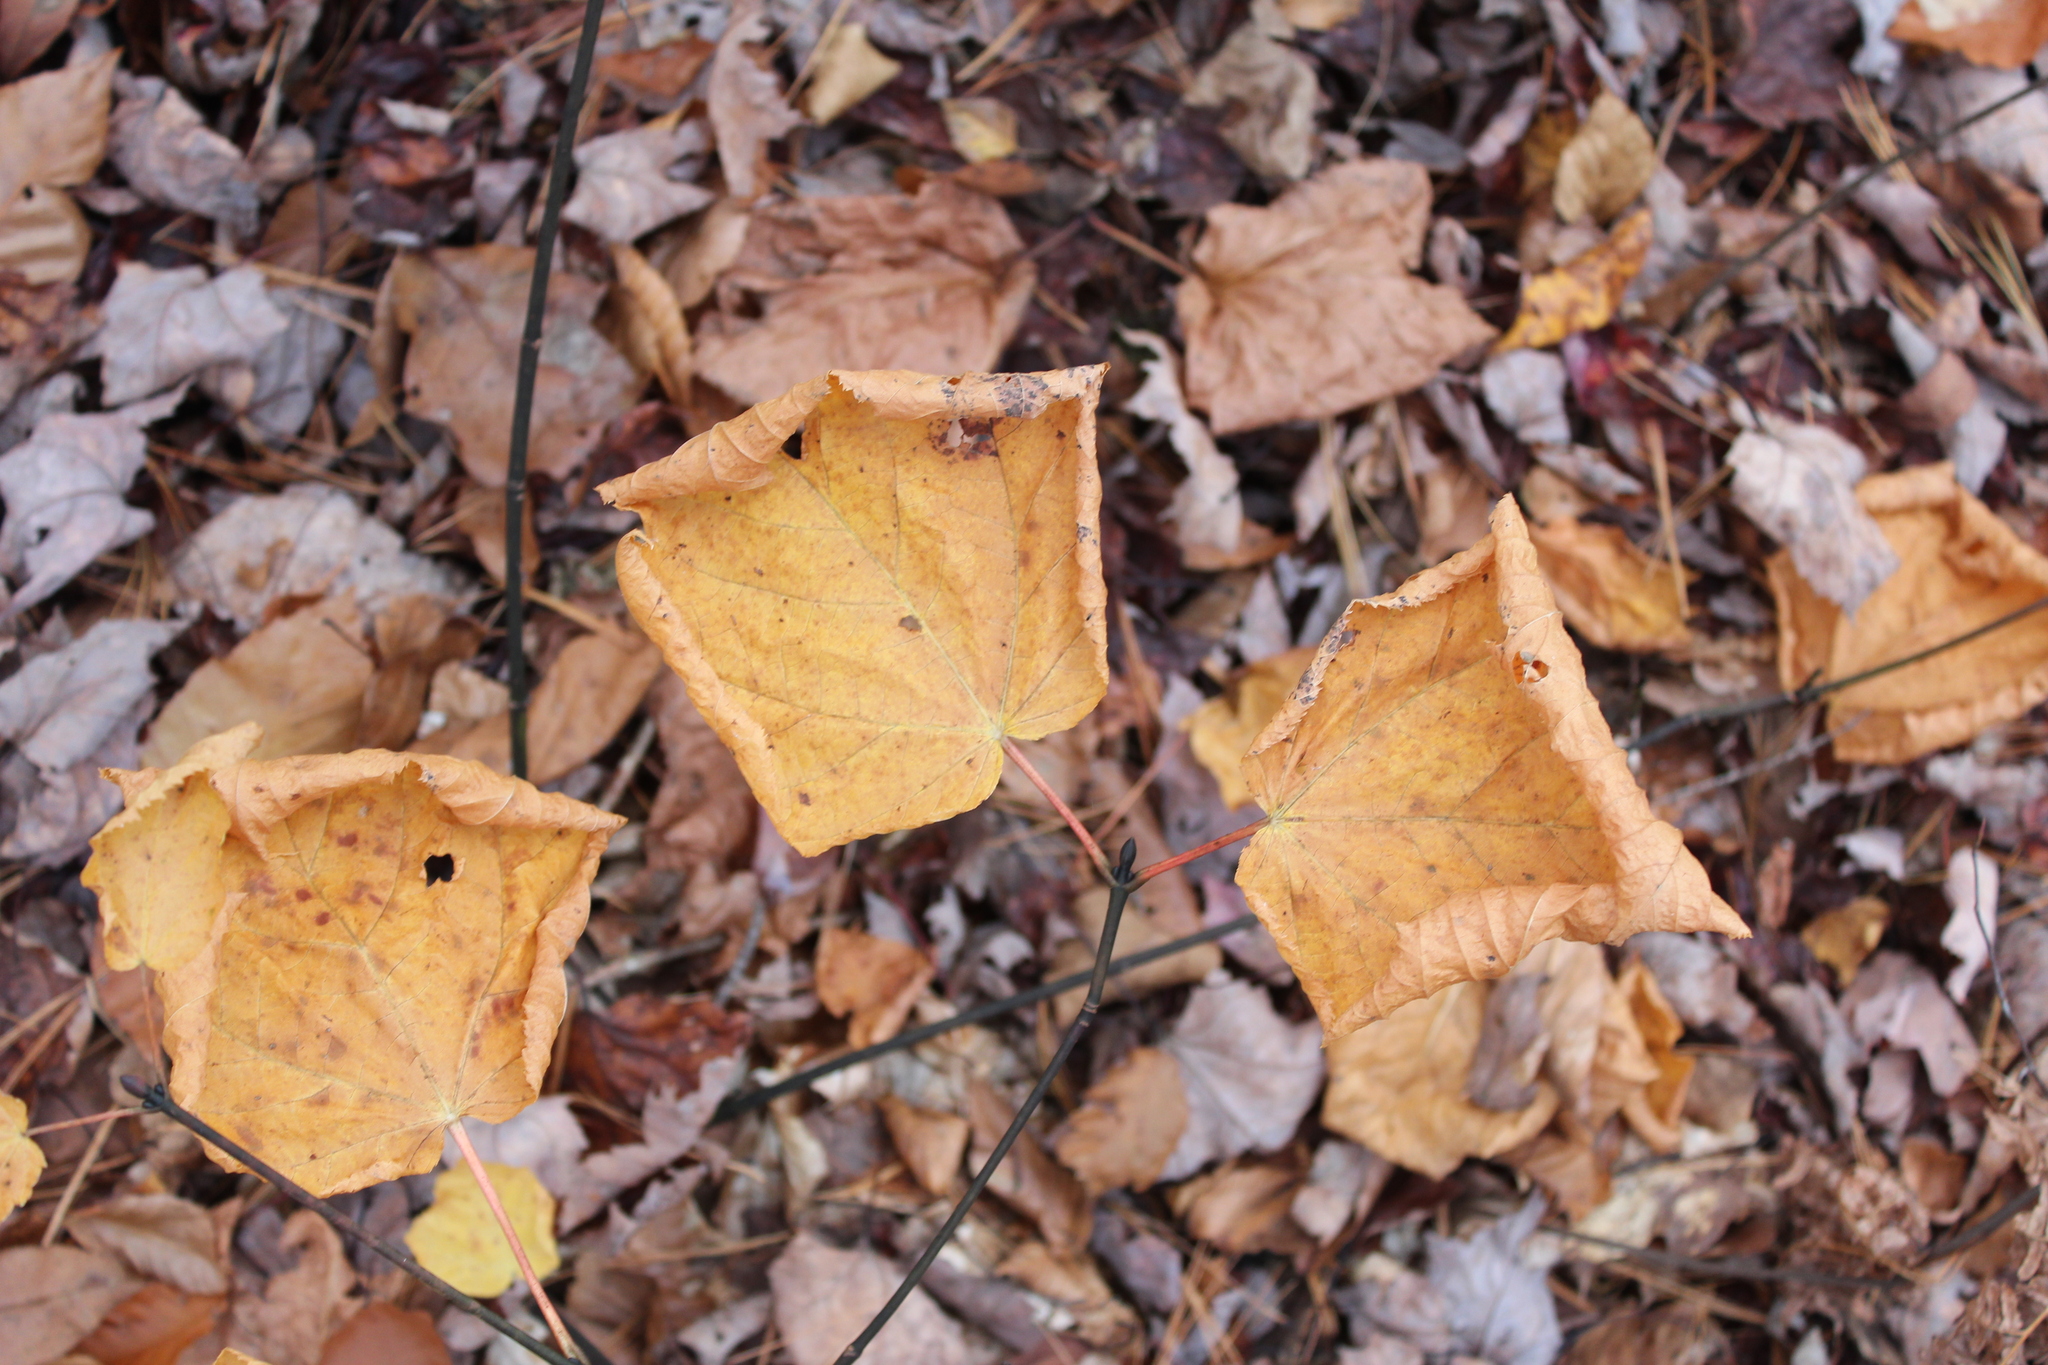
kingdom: Plantae
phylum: Tracheophyta
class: Magnoliopsida
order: Sapindales
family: Sapindaceae
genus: Acer
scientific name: Acer pensylvanicum
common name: Moosewood
